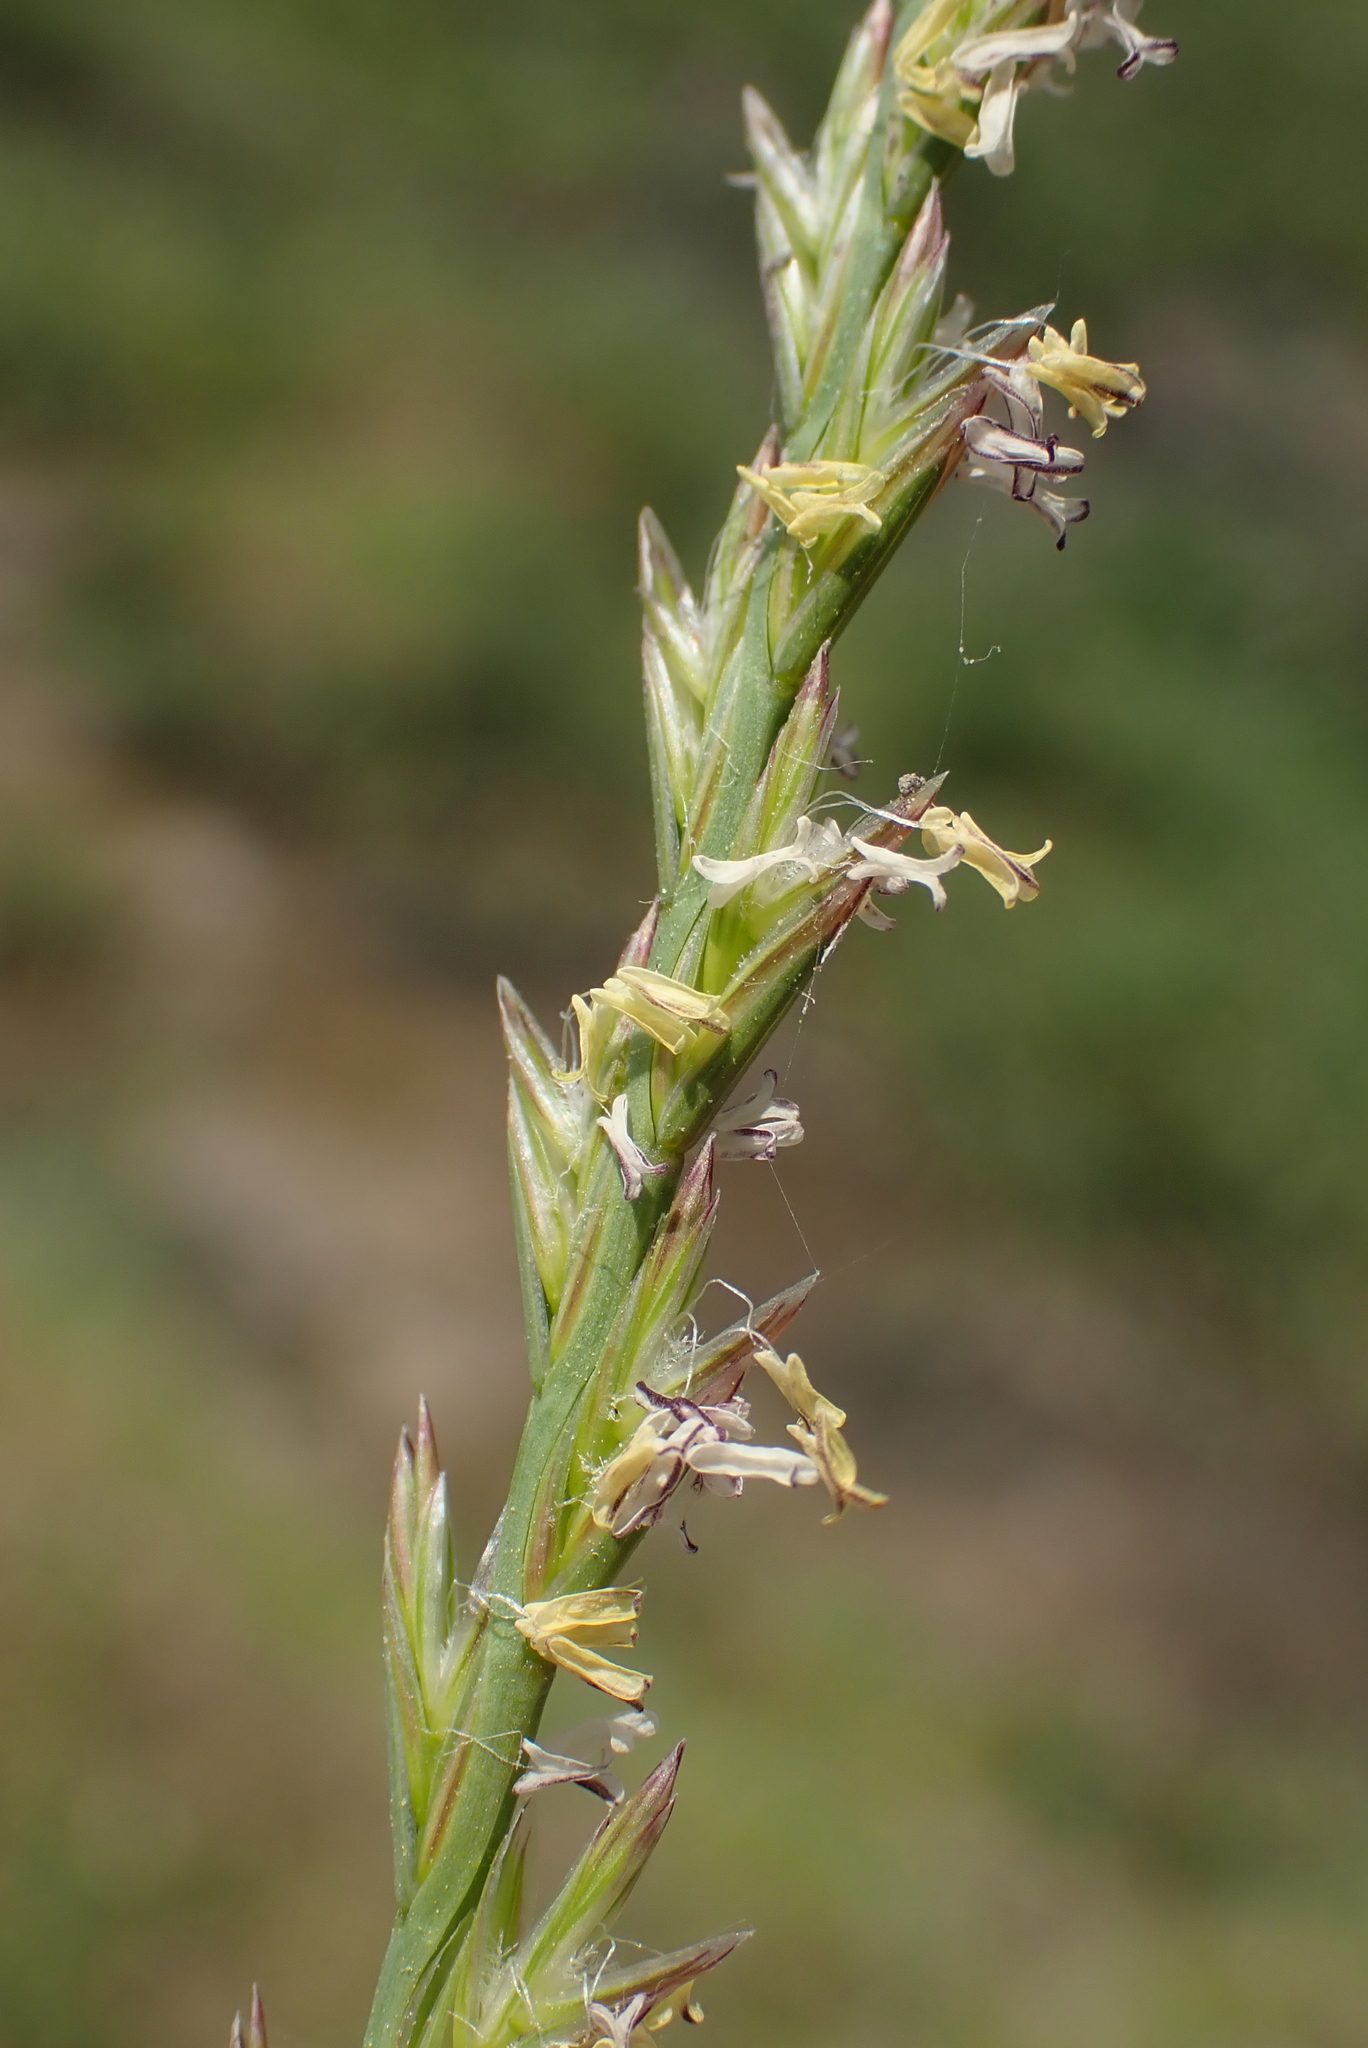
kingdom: Plantae
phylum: Tracheophyta
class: Liliopsida
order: Poales
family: Poaceae
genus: Lolium
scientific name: Lolium perenne
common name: Perennial ryegrass
